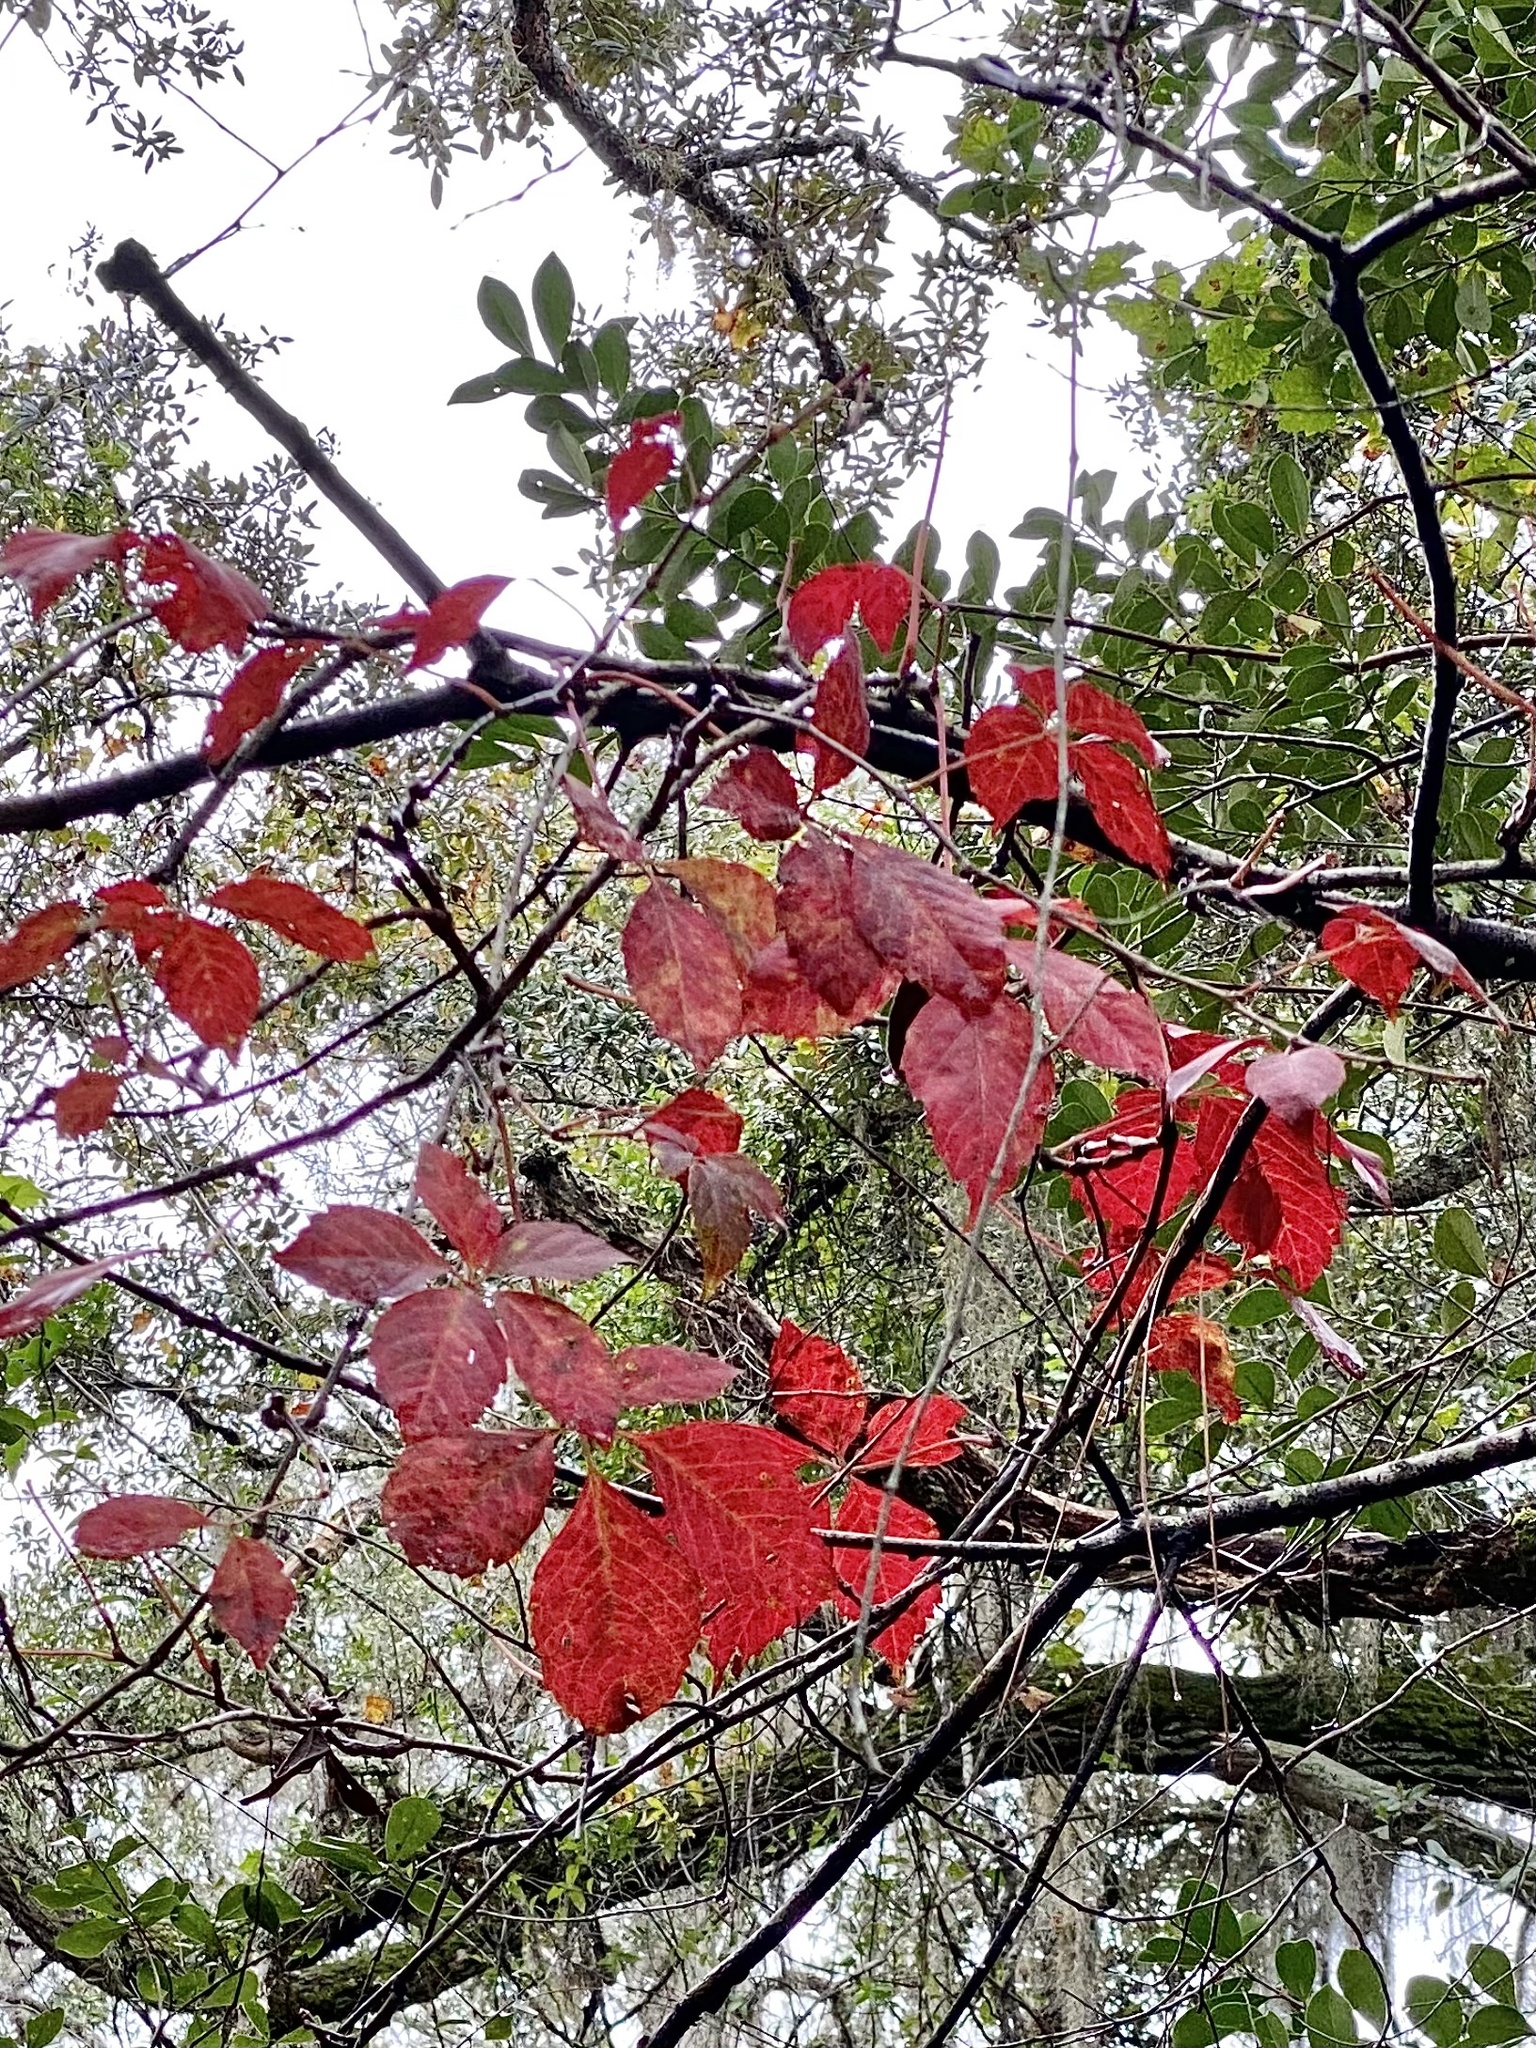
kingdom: Plantae
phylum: Tracheophyta
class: Magnoliopsida
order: Vitales
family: Vitaceae
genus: Parthenocissus
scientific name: Parthenocissus quinquefolia
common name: Virginia-creeper
